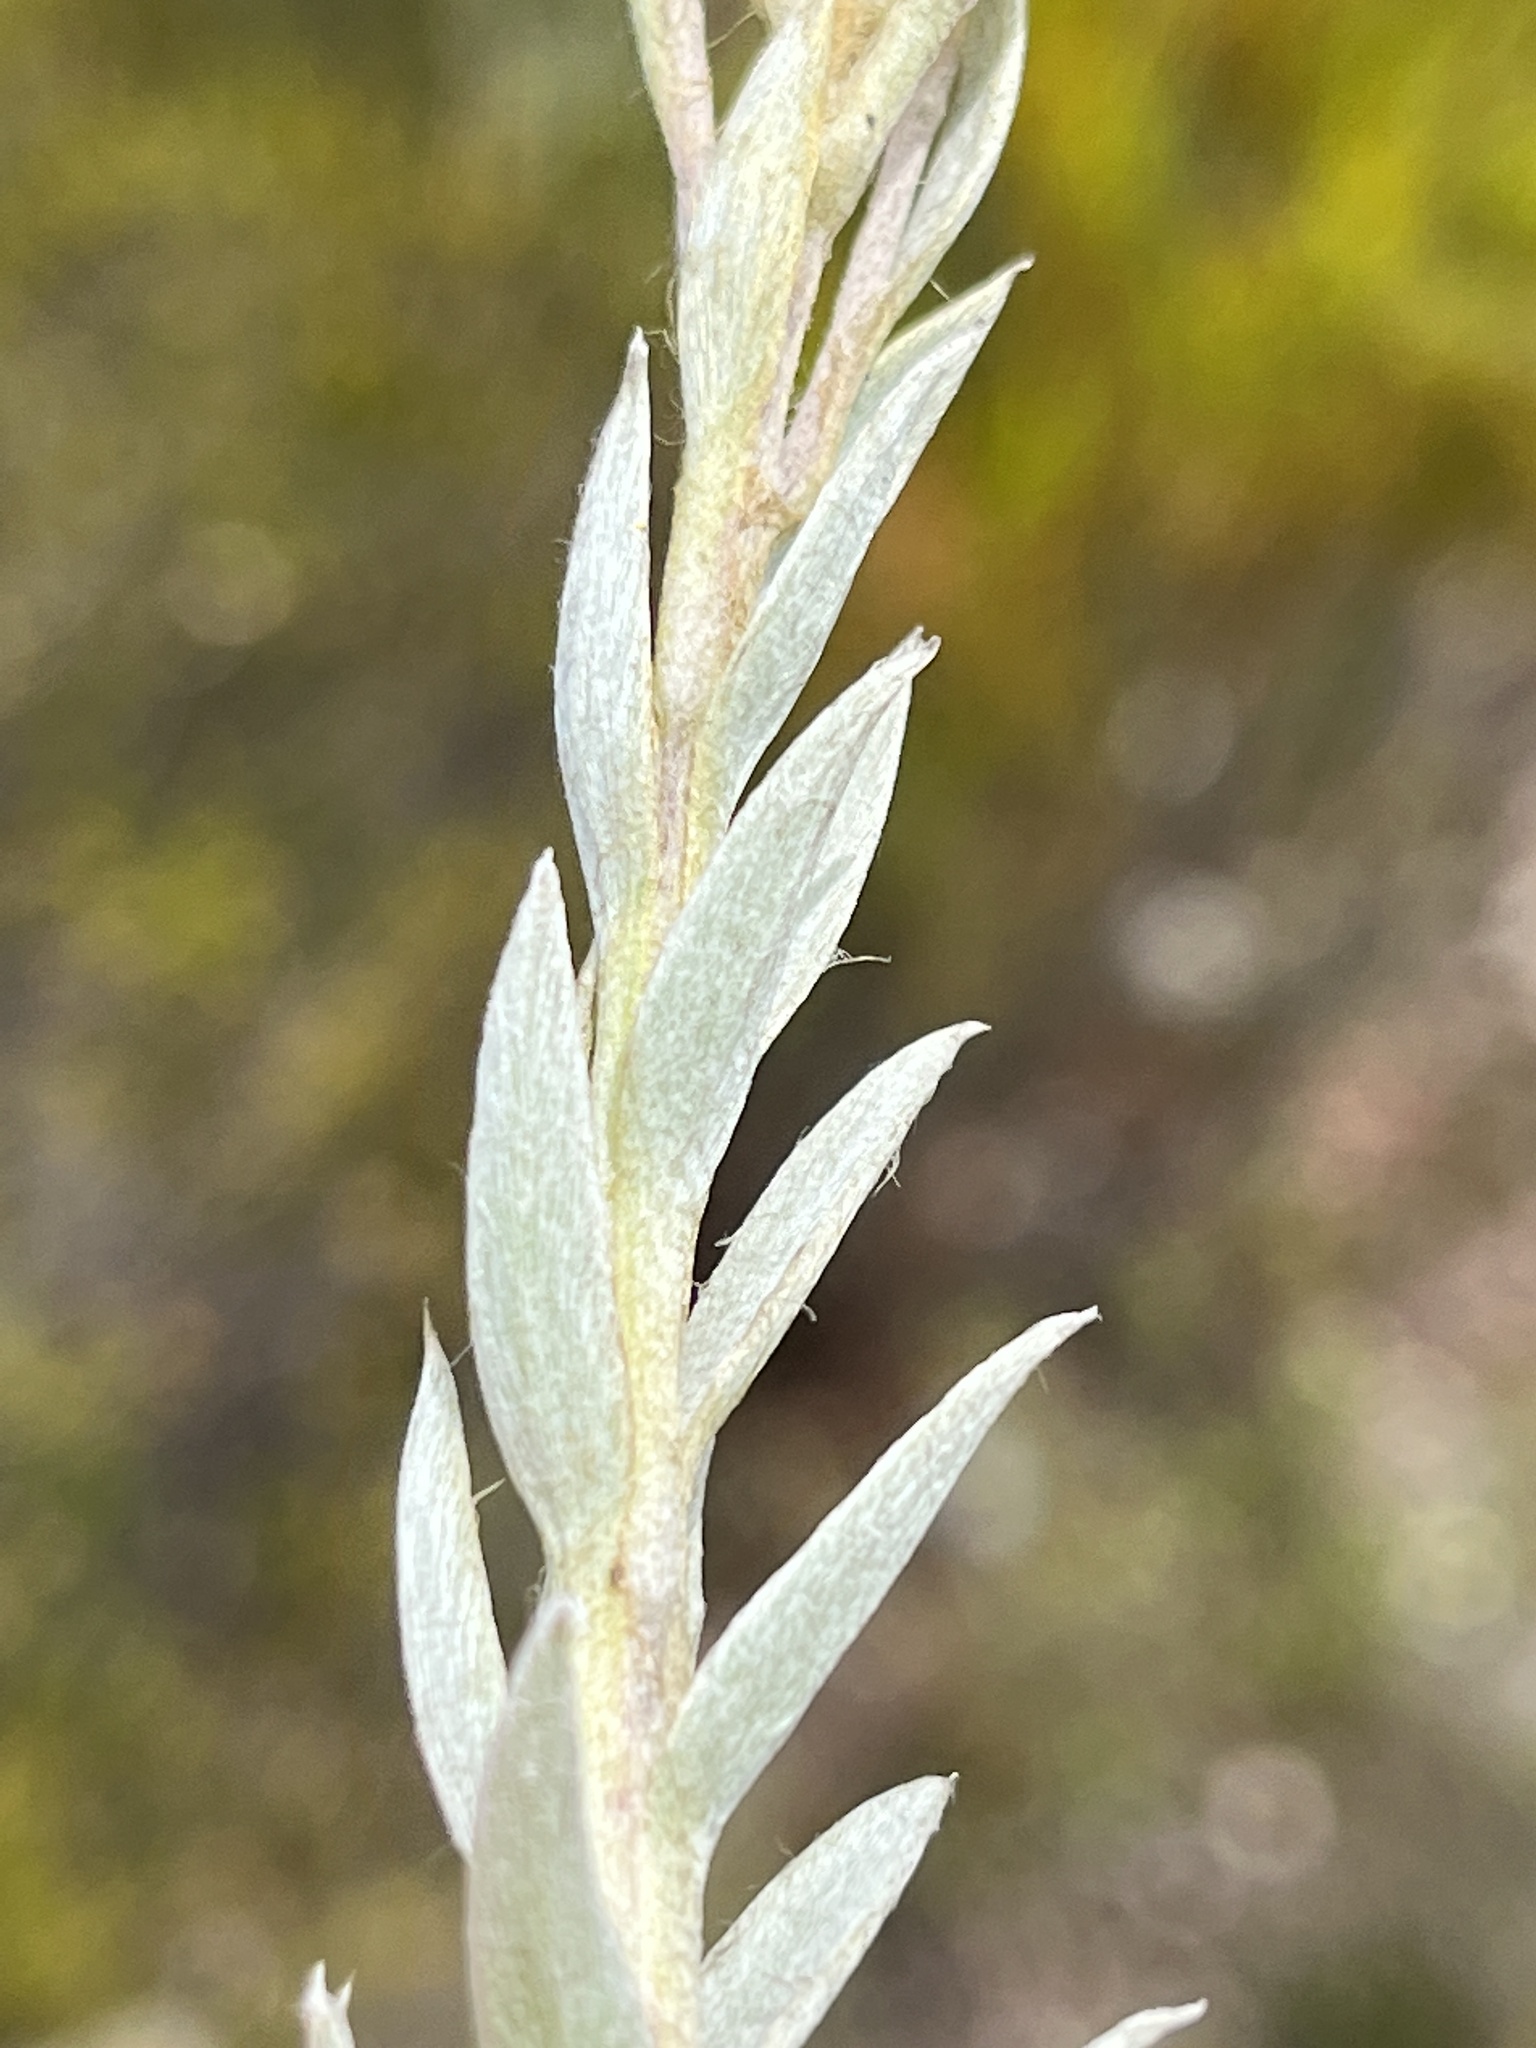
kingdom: Plantae
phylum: Tracheophyta
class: Magnoliopsida
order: Asterales
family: Asteraceae
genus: Achyranthemum
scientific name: Achyranthemum mucronatum
